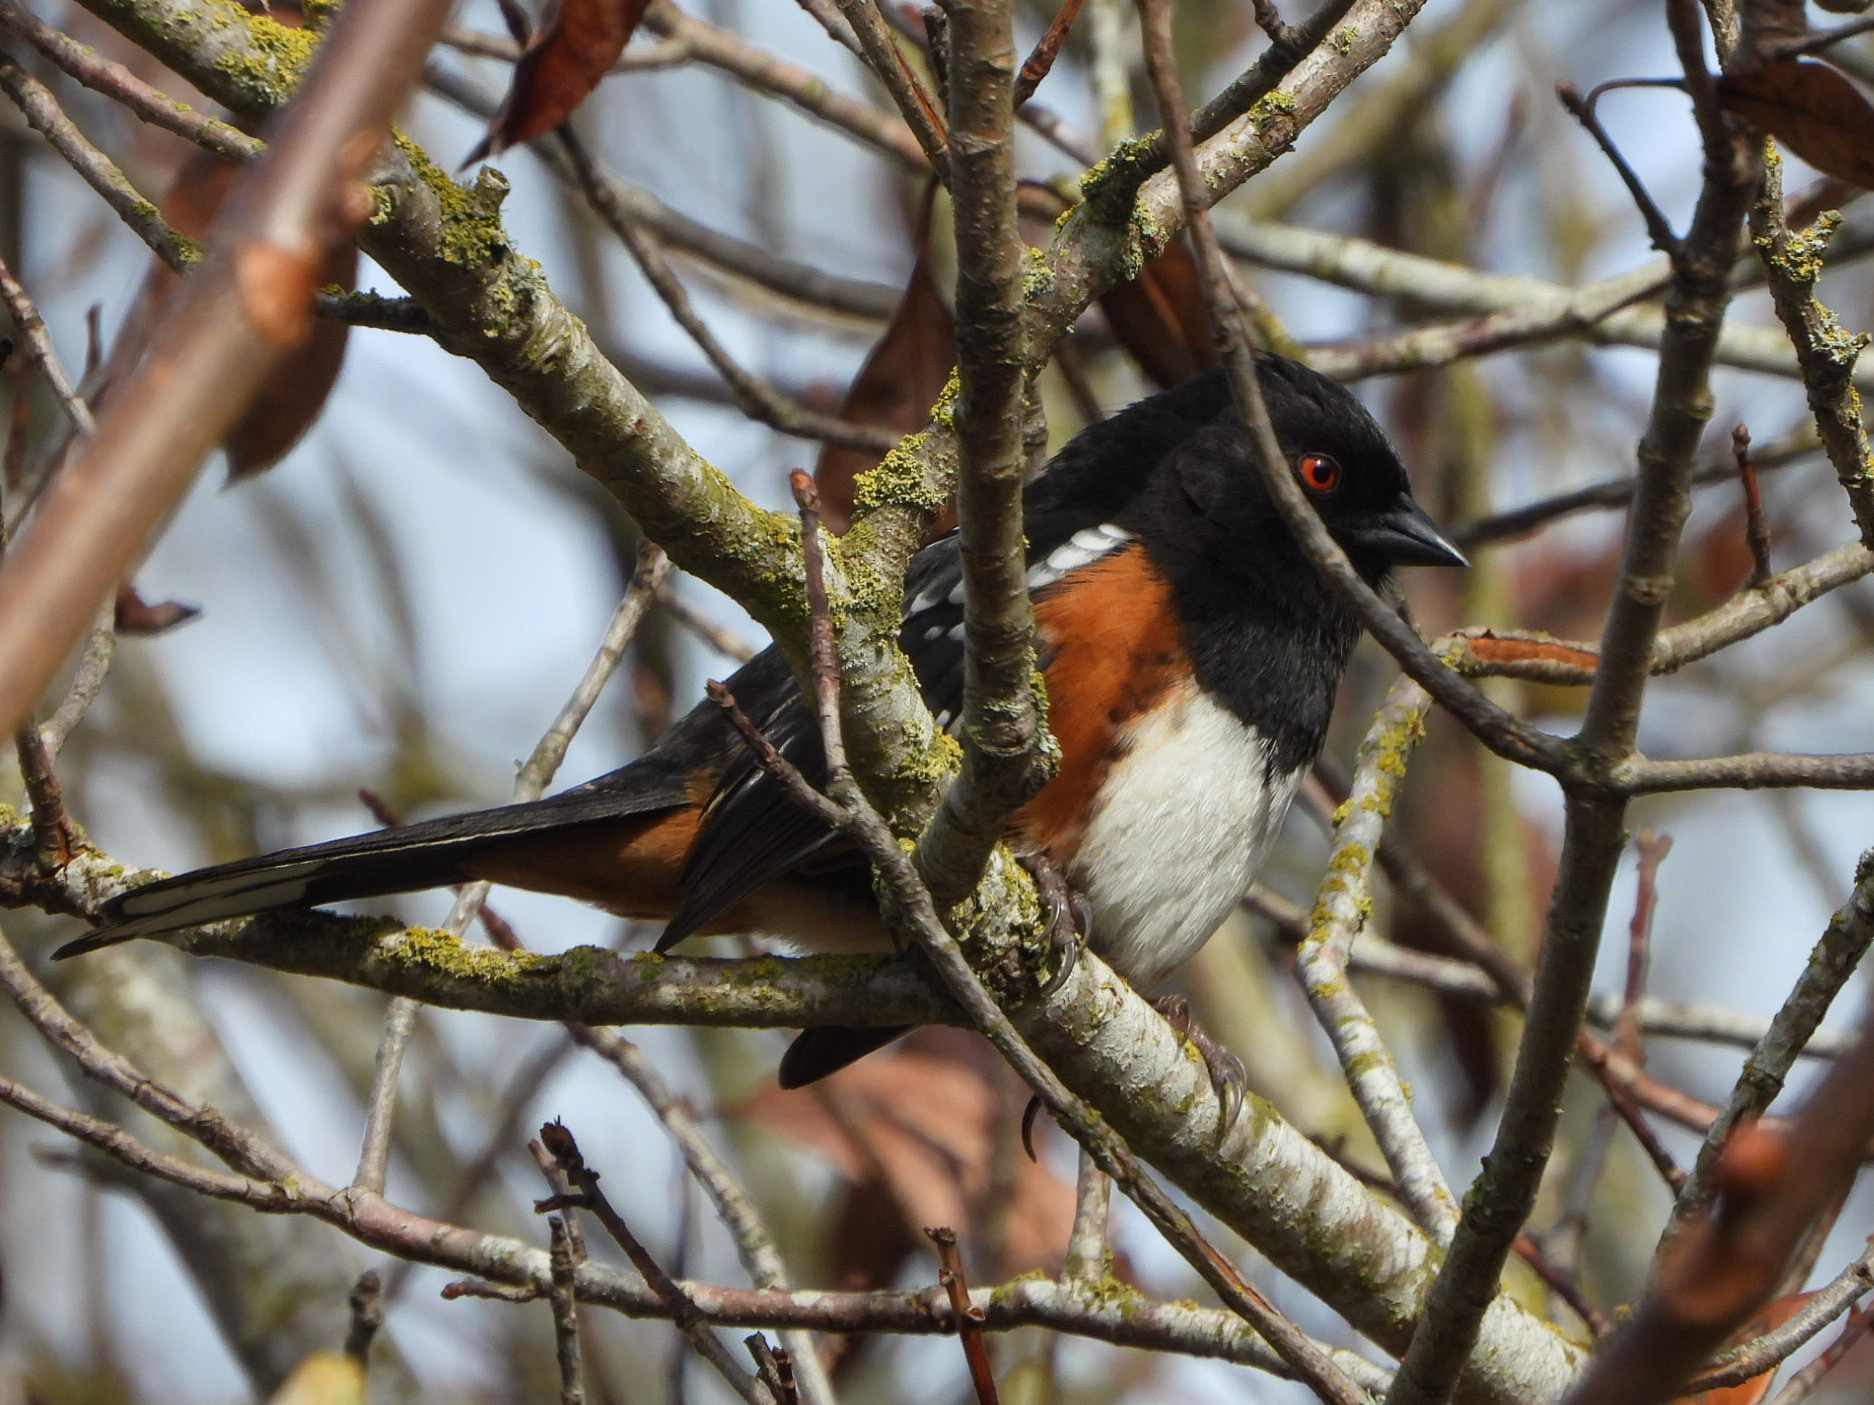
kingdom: Animalia
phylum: Chordata
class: Aves
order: Passeriformes
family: Passerellidae
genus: Pipilo
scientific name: Pipilo maculatus
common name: Spotted towhee
